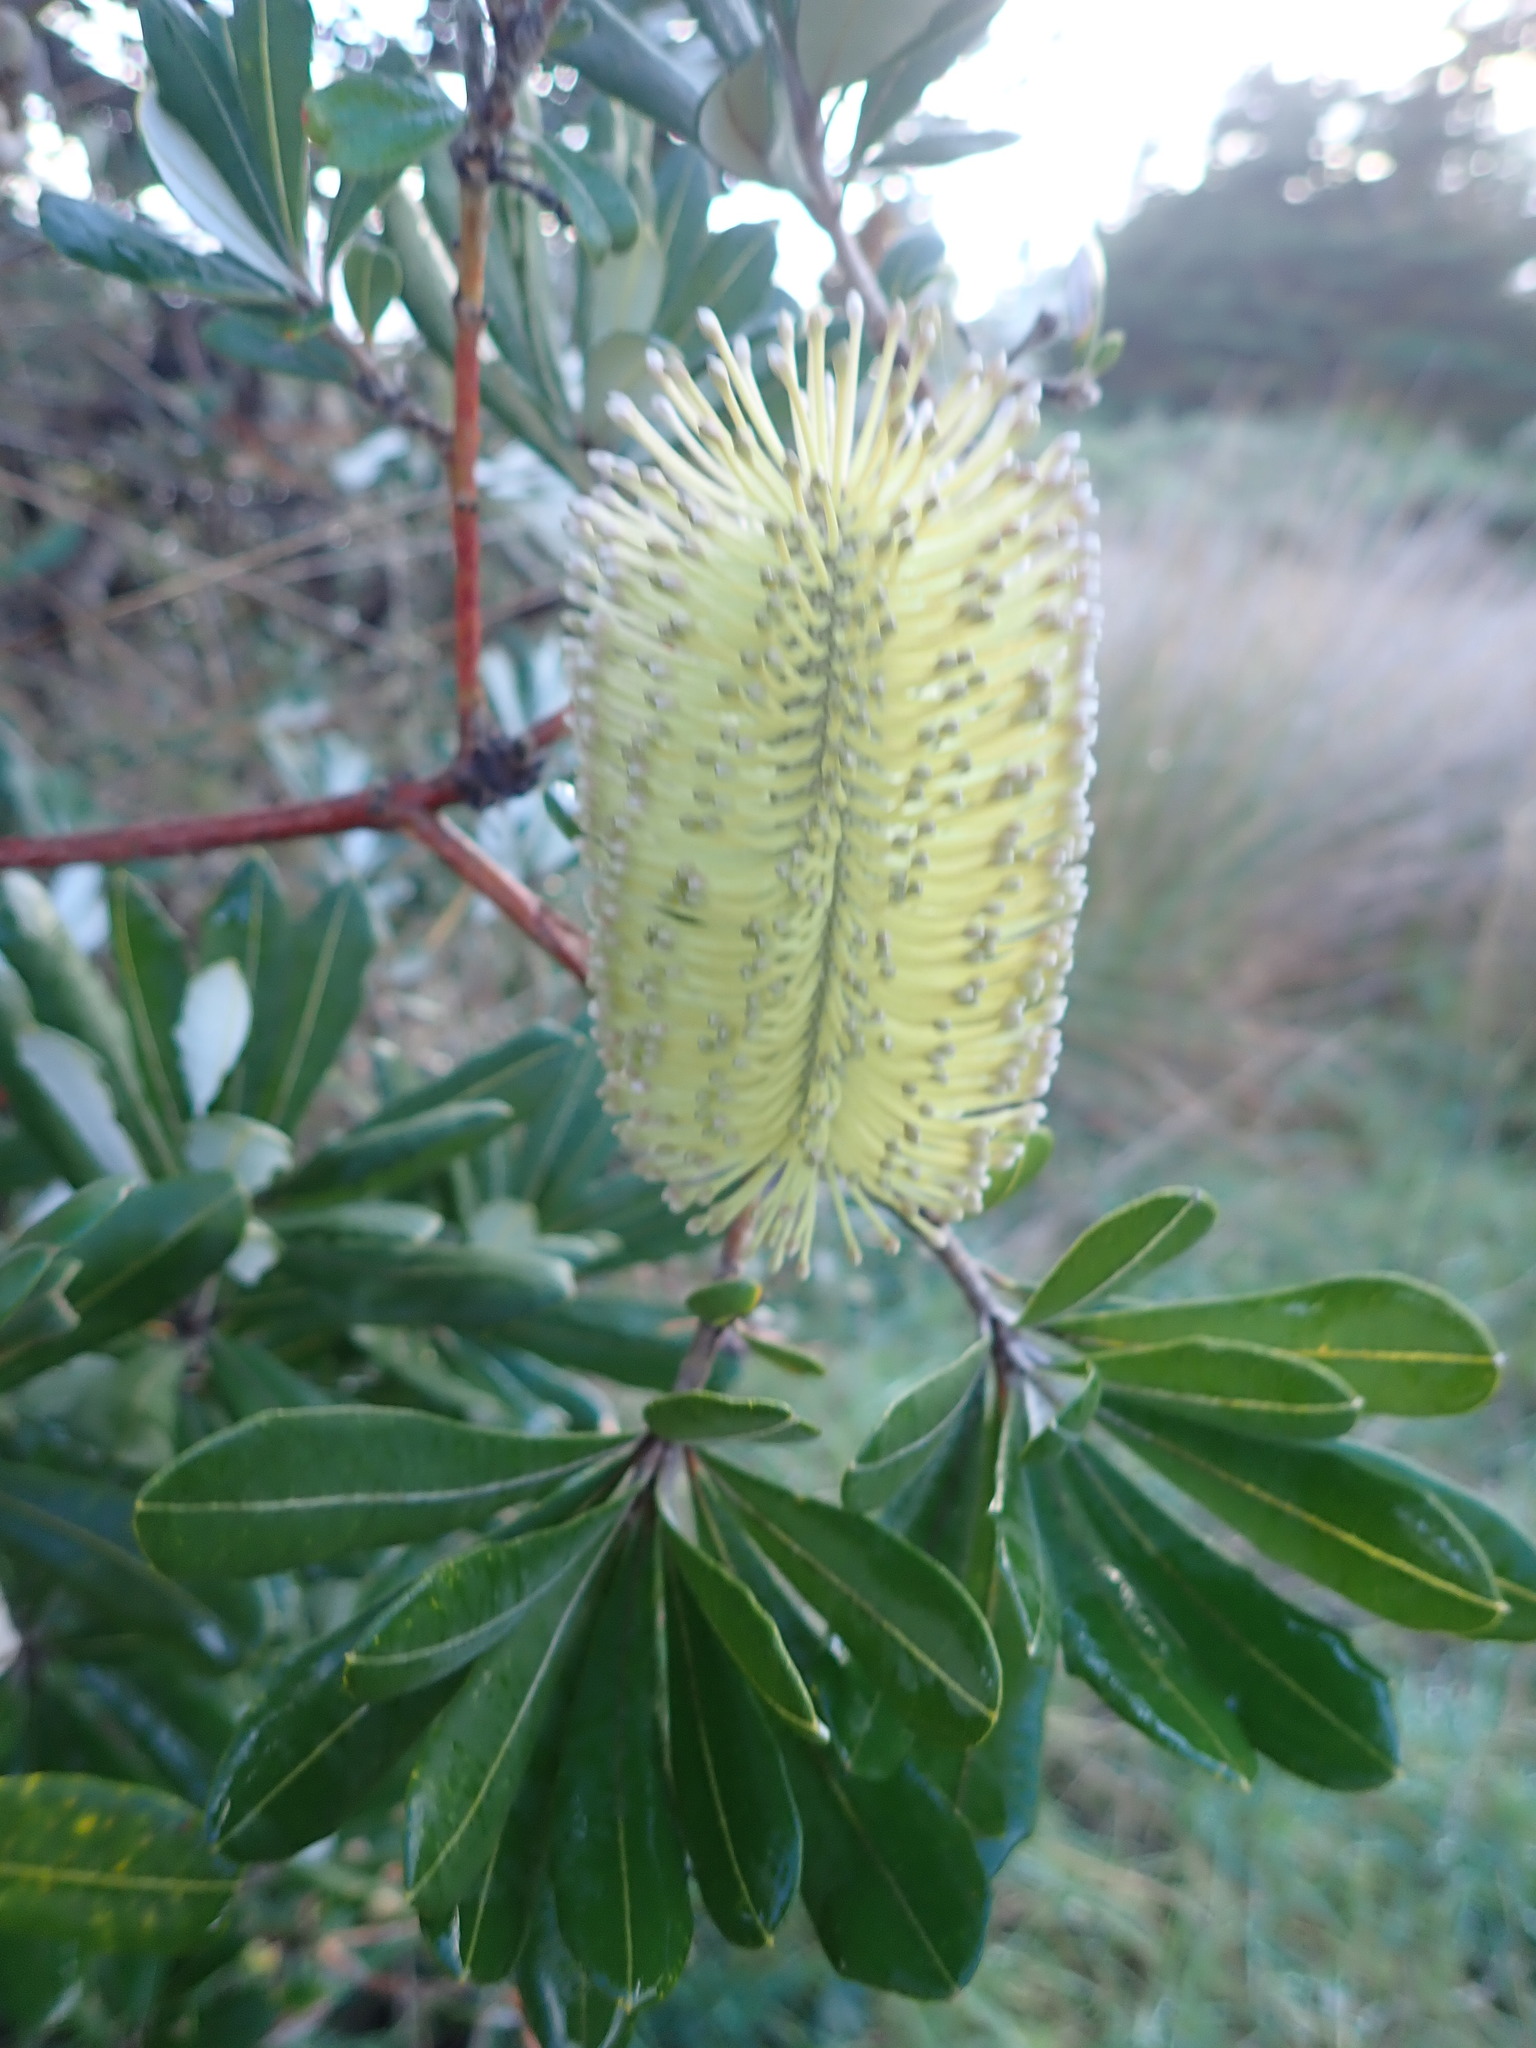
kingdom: Plantae
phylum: Tracheophyta
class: Magnoliopsida
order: Proteales
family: Proteaceae
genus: Banksia
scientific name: Banksia integrifolia
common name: White-honeysuckle
